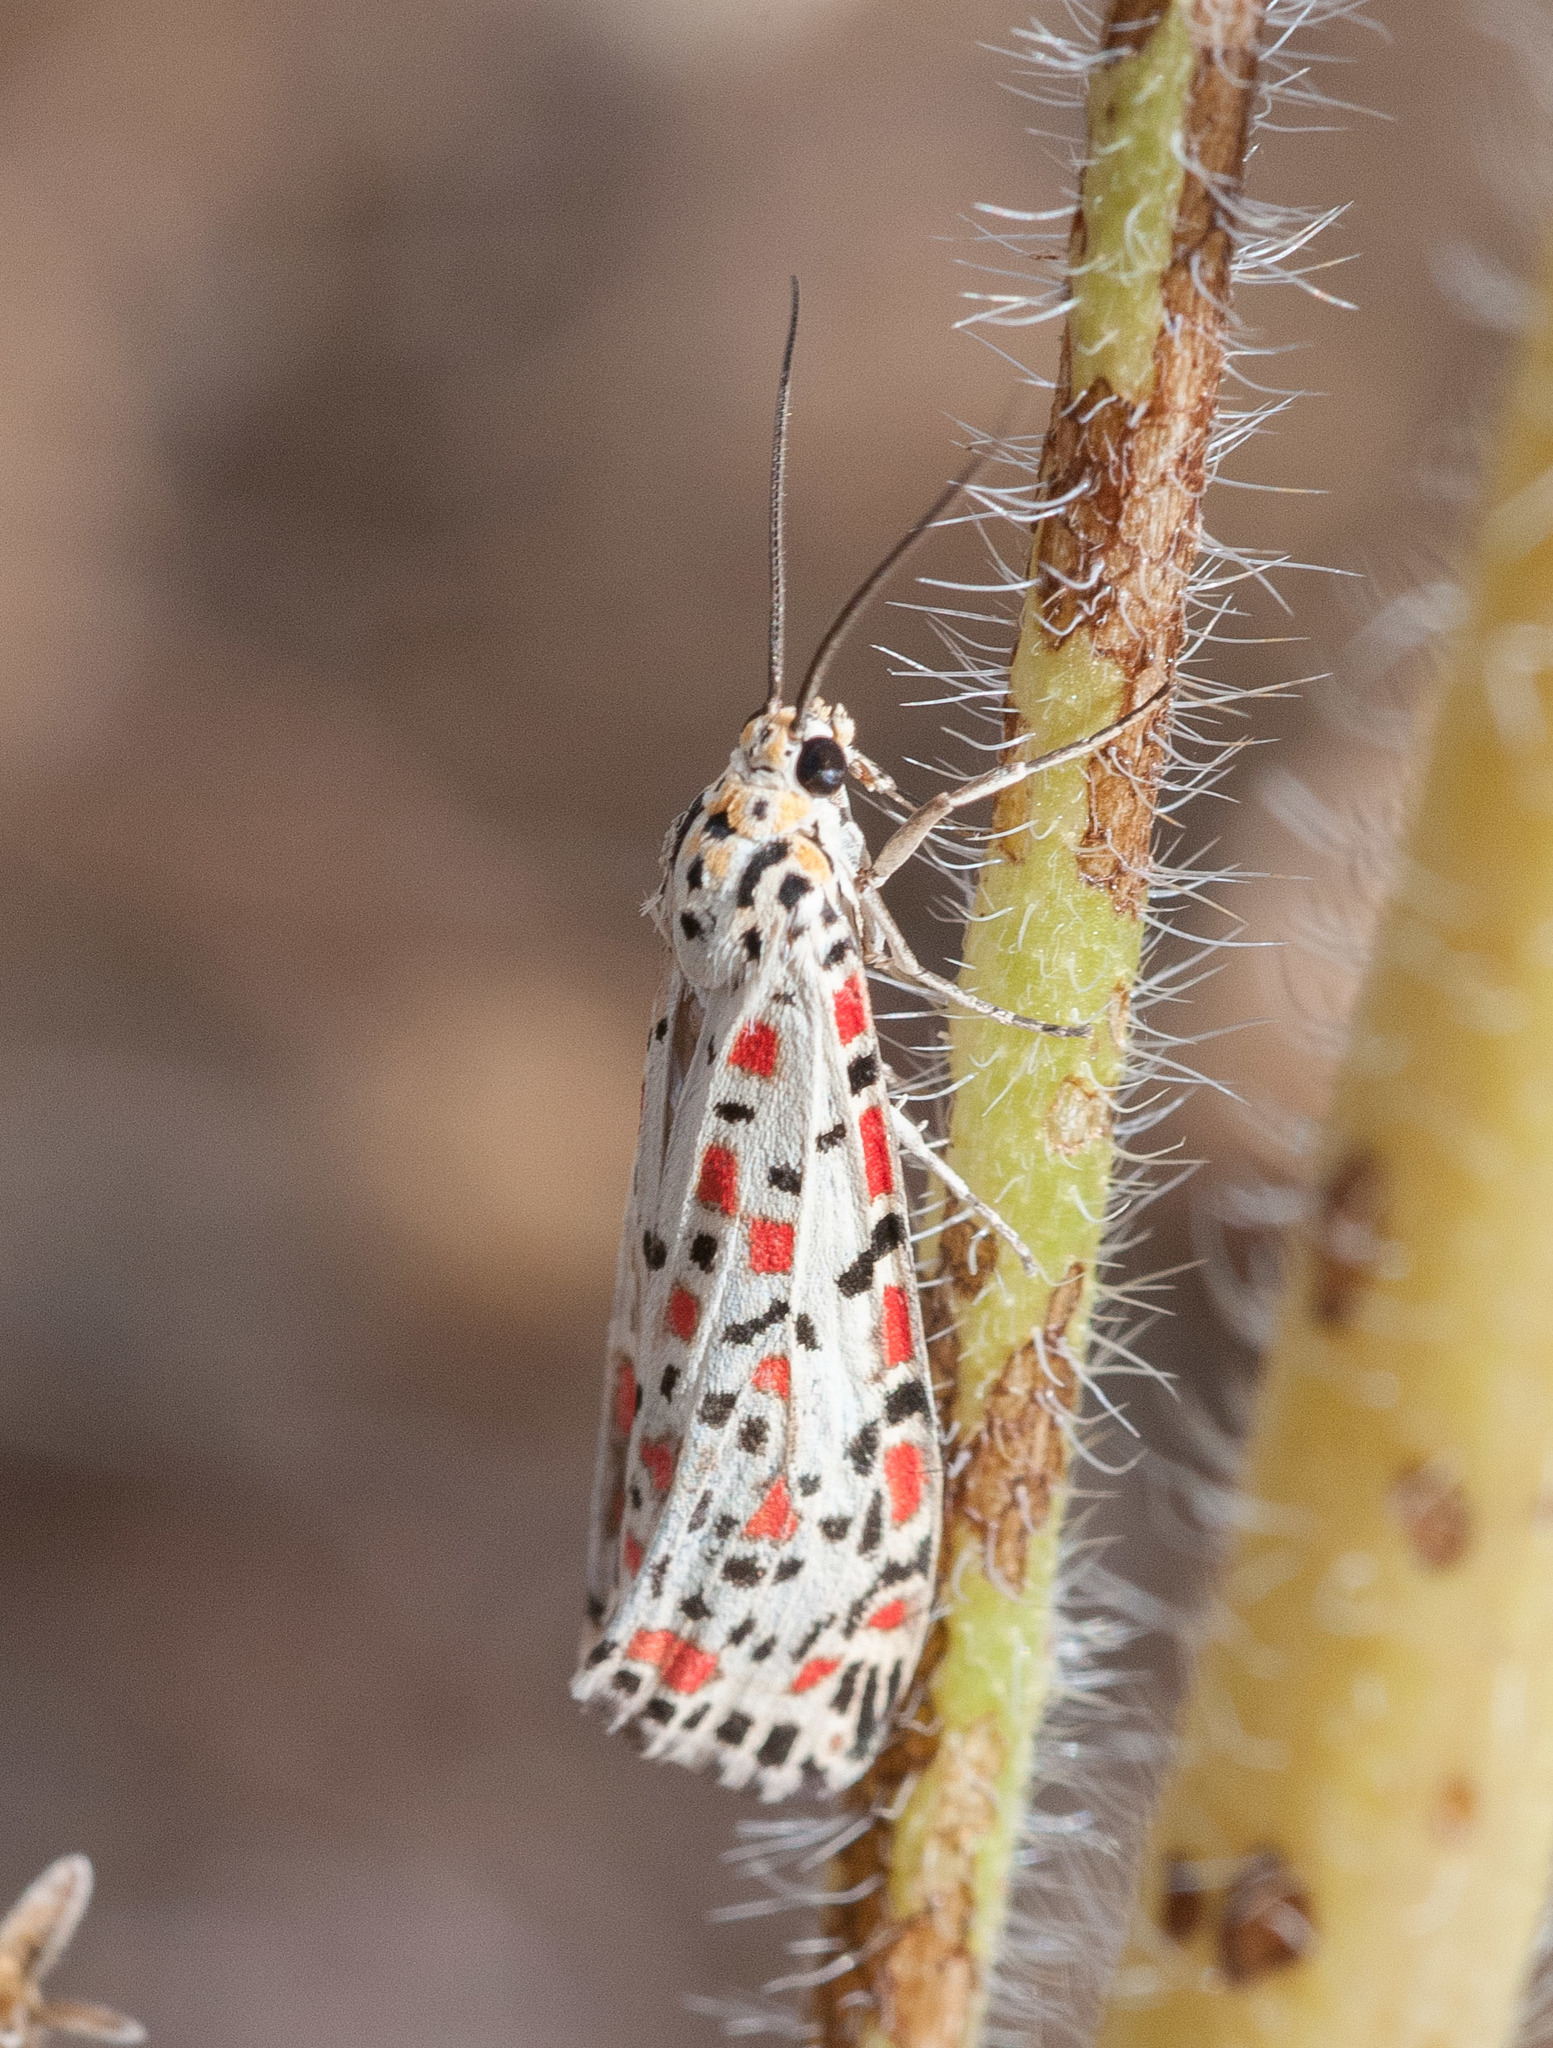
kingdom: Animalia
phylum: Arthropoda
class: Insecta
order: Lepidoptera
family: Erebidae
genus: Utetheisa
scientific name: Utetheisa pulchelloides
